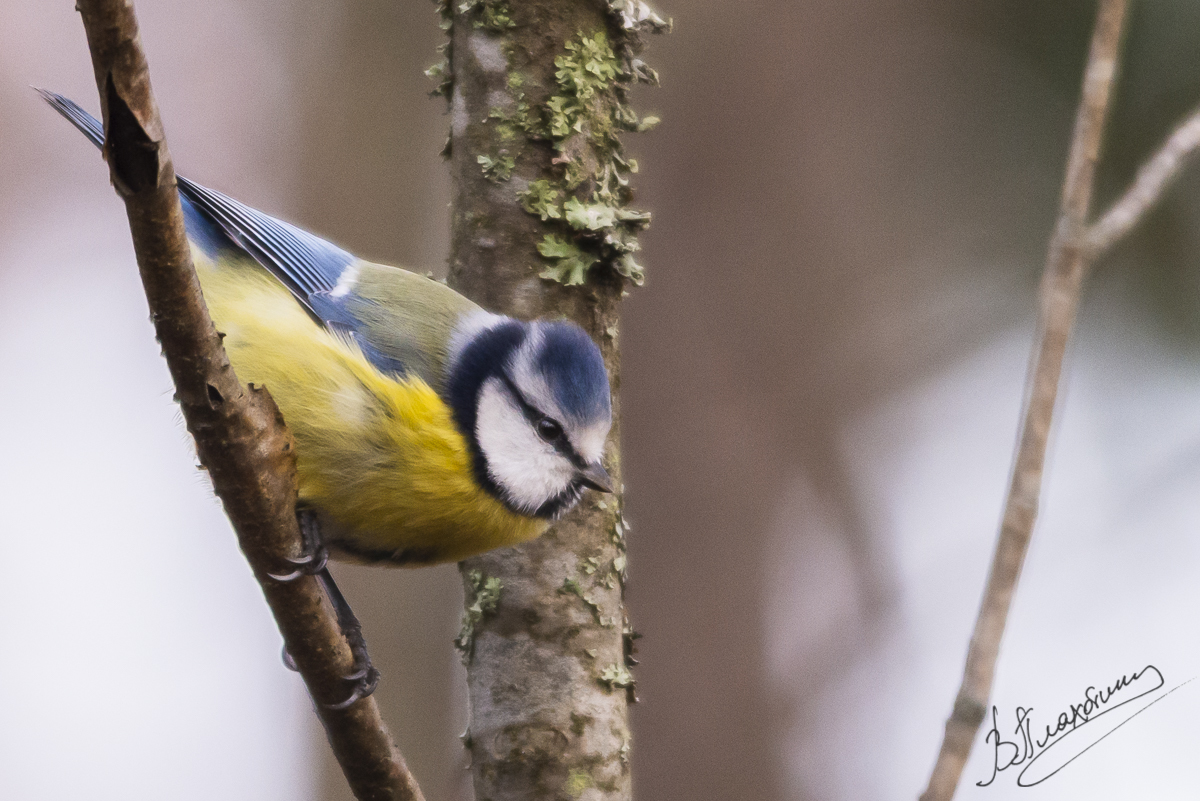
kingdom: Animalia
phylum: Chordata
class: Aves
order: Passeriformes
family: Paridae
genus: Cyanistes
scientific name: Cyanistes caeruleus
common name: Eurasian blue tit
